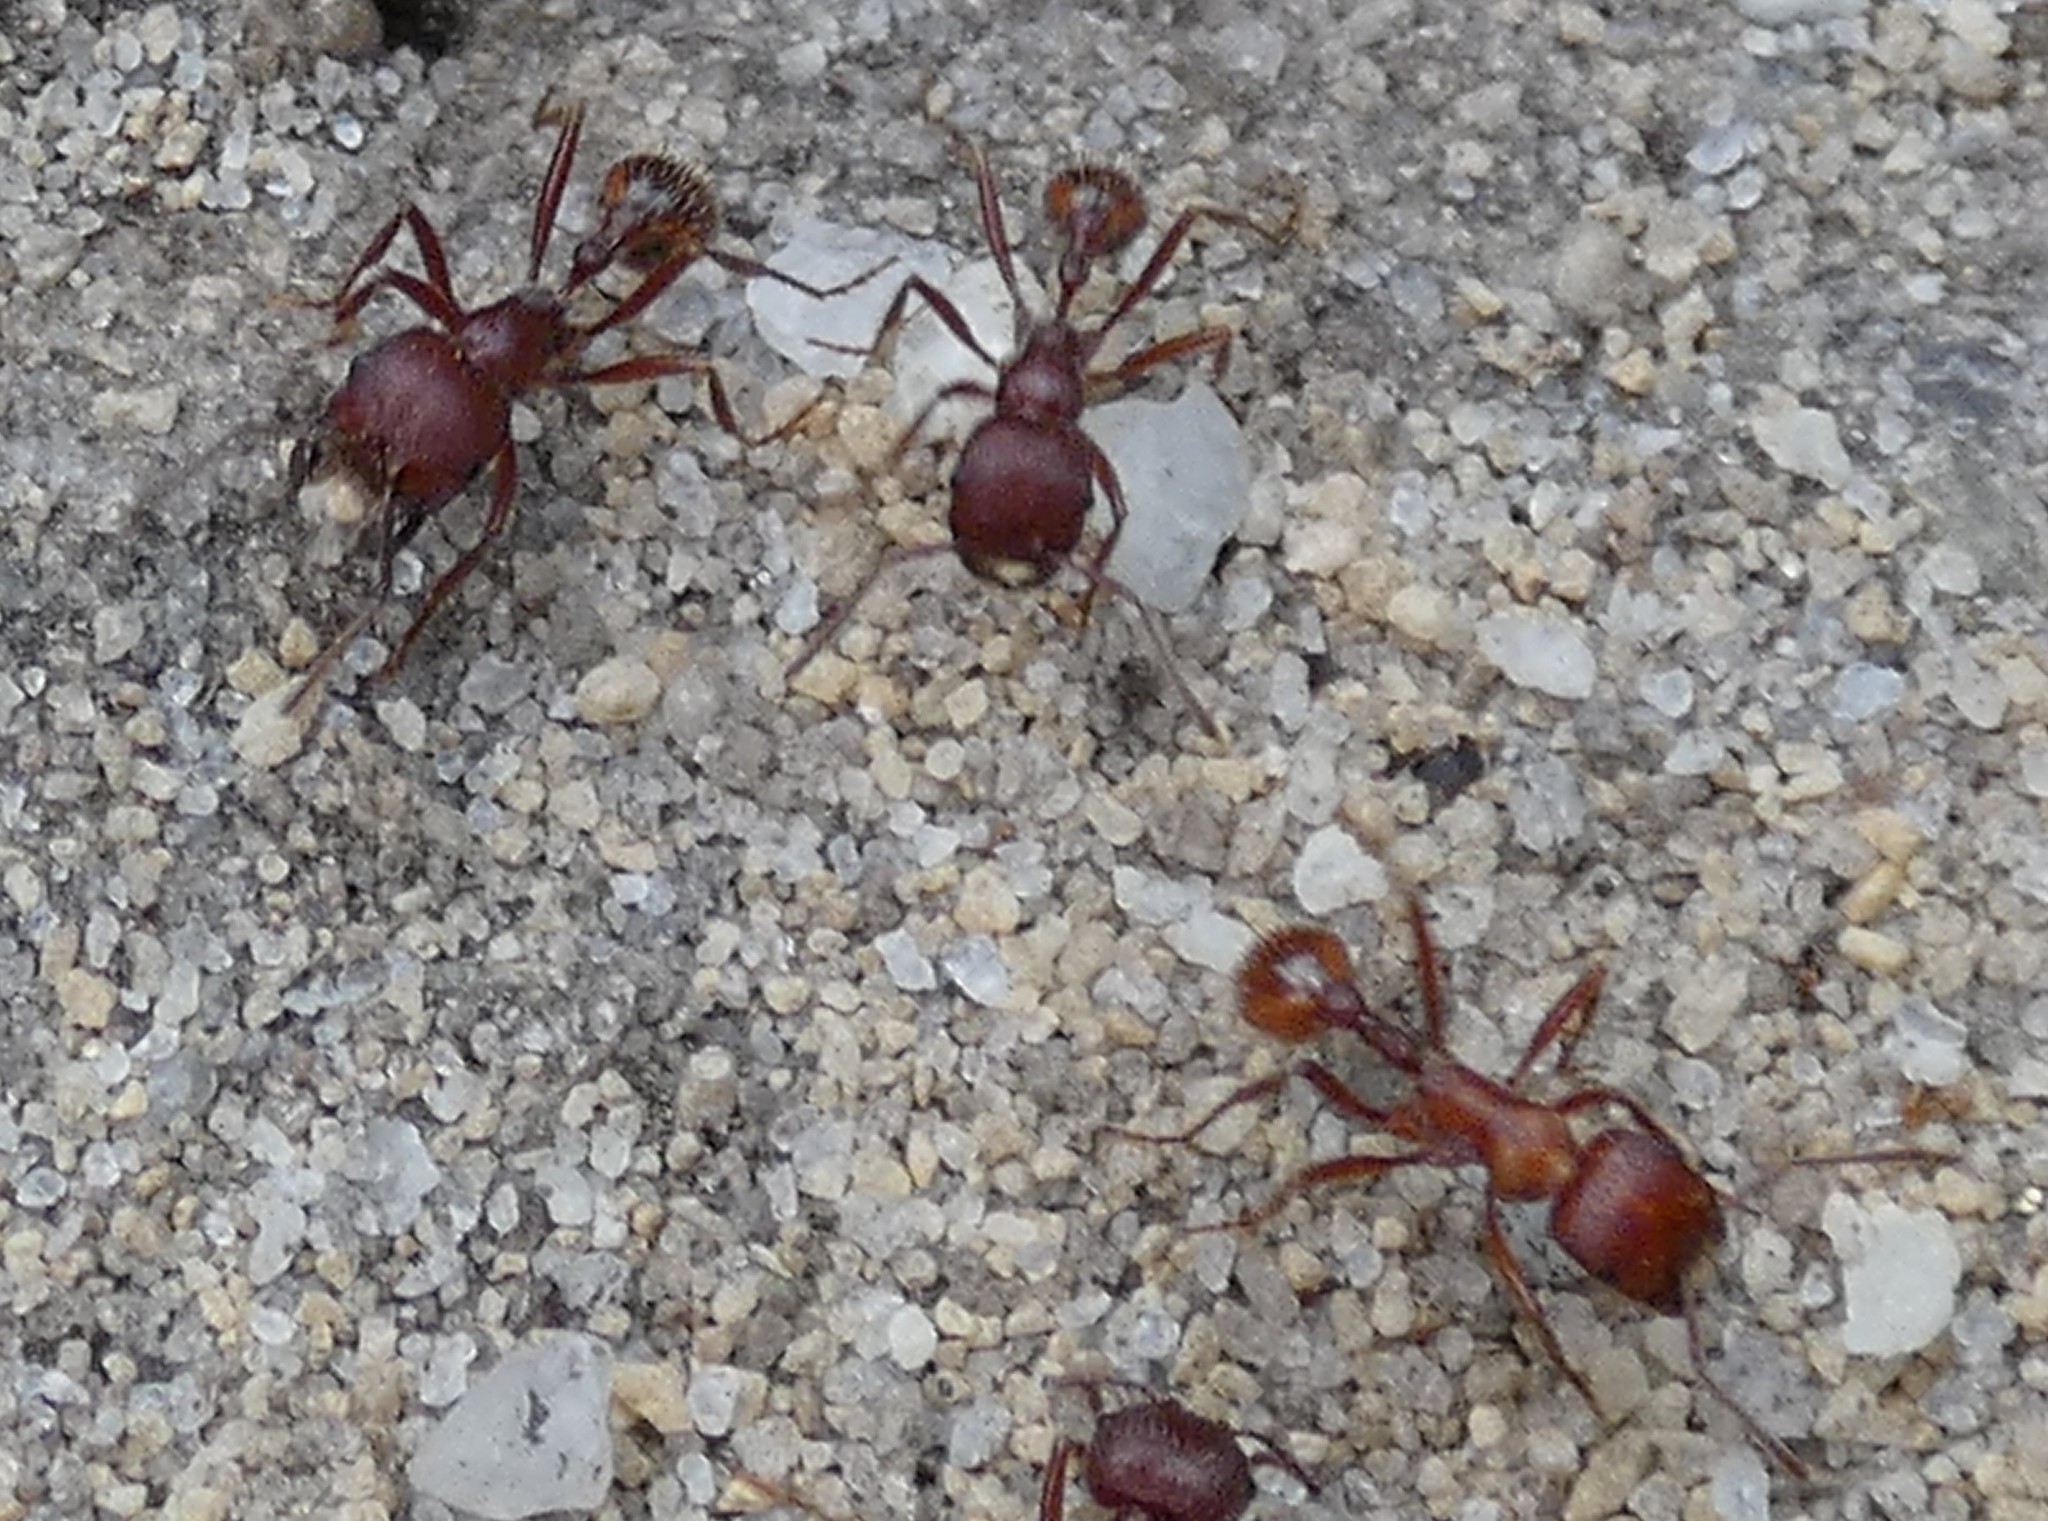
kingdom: Animalia
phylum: Arthropoda
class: Insecta
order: Hymenoptera
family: Formicidae
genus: Pogonomyrmex
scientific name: Pogonomyrmex badius
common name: Florida harvester ant
